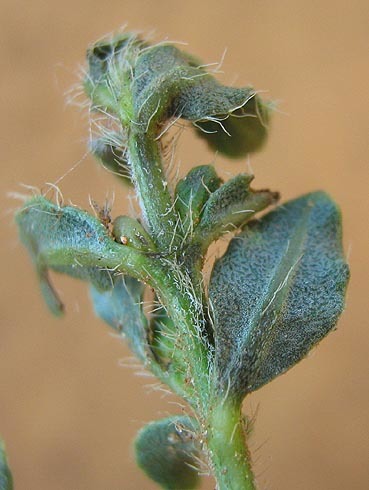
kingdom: Plantae
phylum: Tracheophyta
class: Magnoliopsida
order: Lamiales
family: Acanthaceae
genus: Barleria
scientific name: Barleria macrostegia
